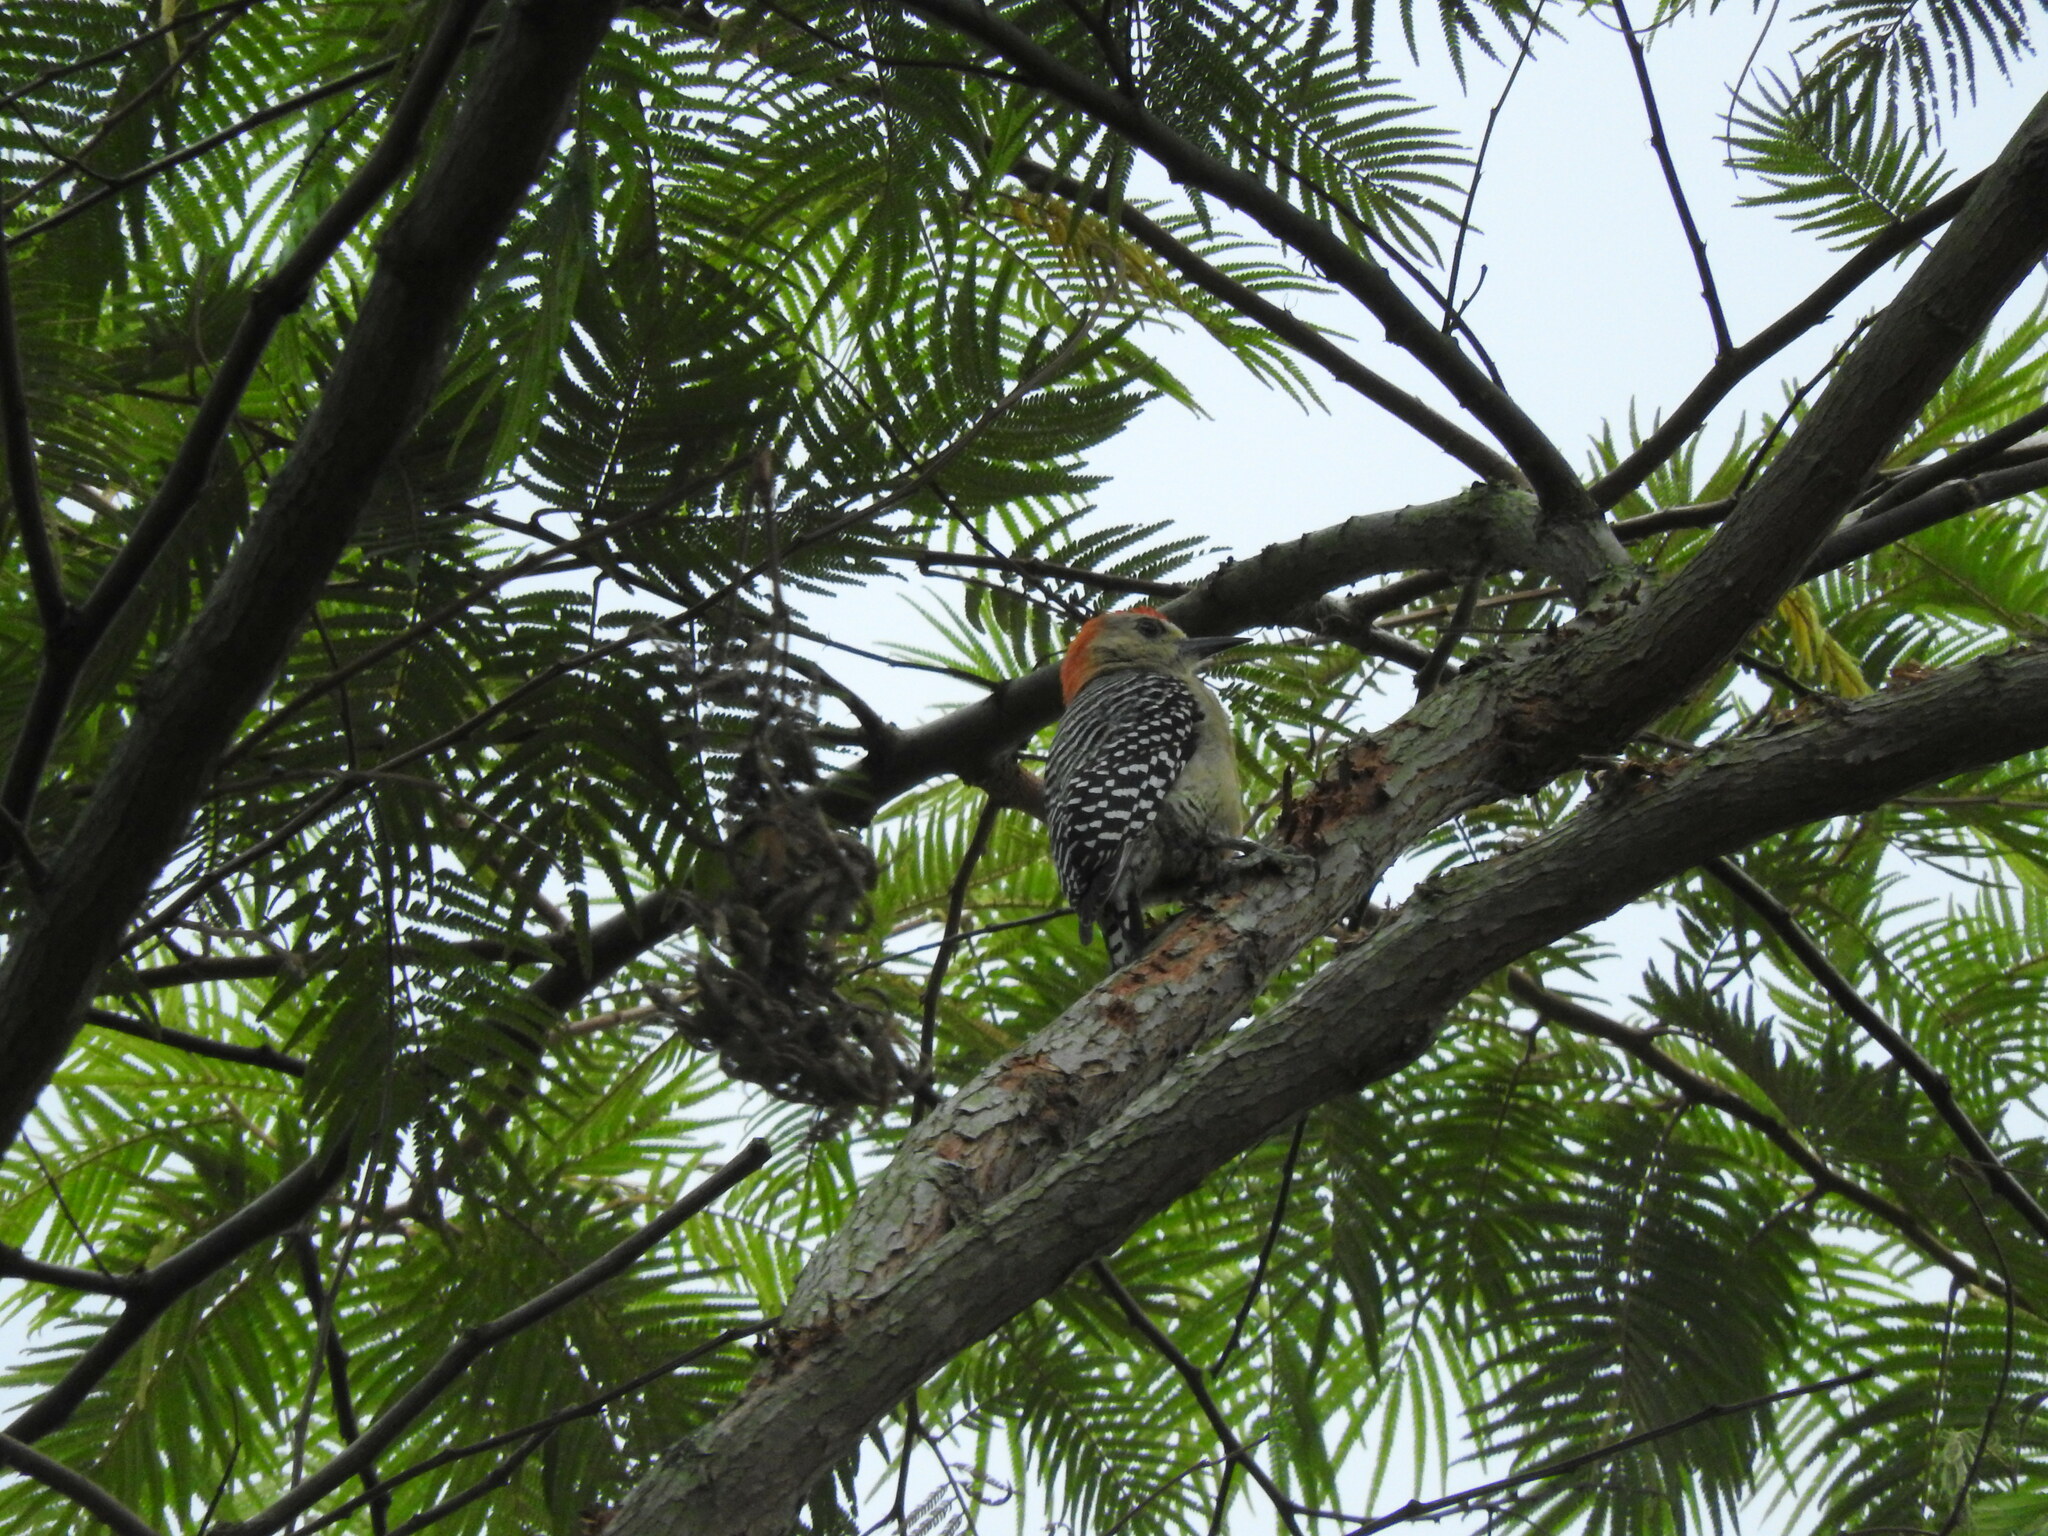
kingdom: Animalia
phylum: Chordata
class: Aves
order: Piciformes
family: Picidae
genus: Melanerpes
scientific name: Melanerpes rubricapillus
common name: Red-crowned woodpecker
